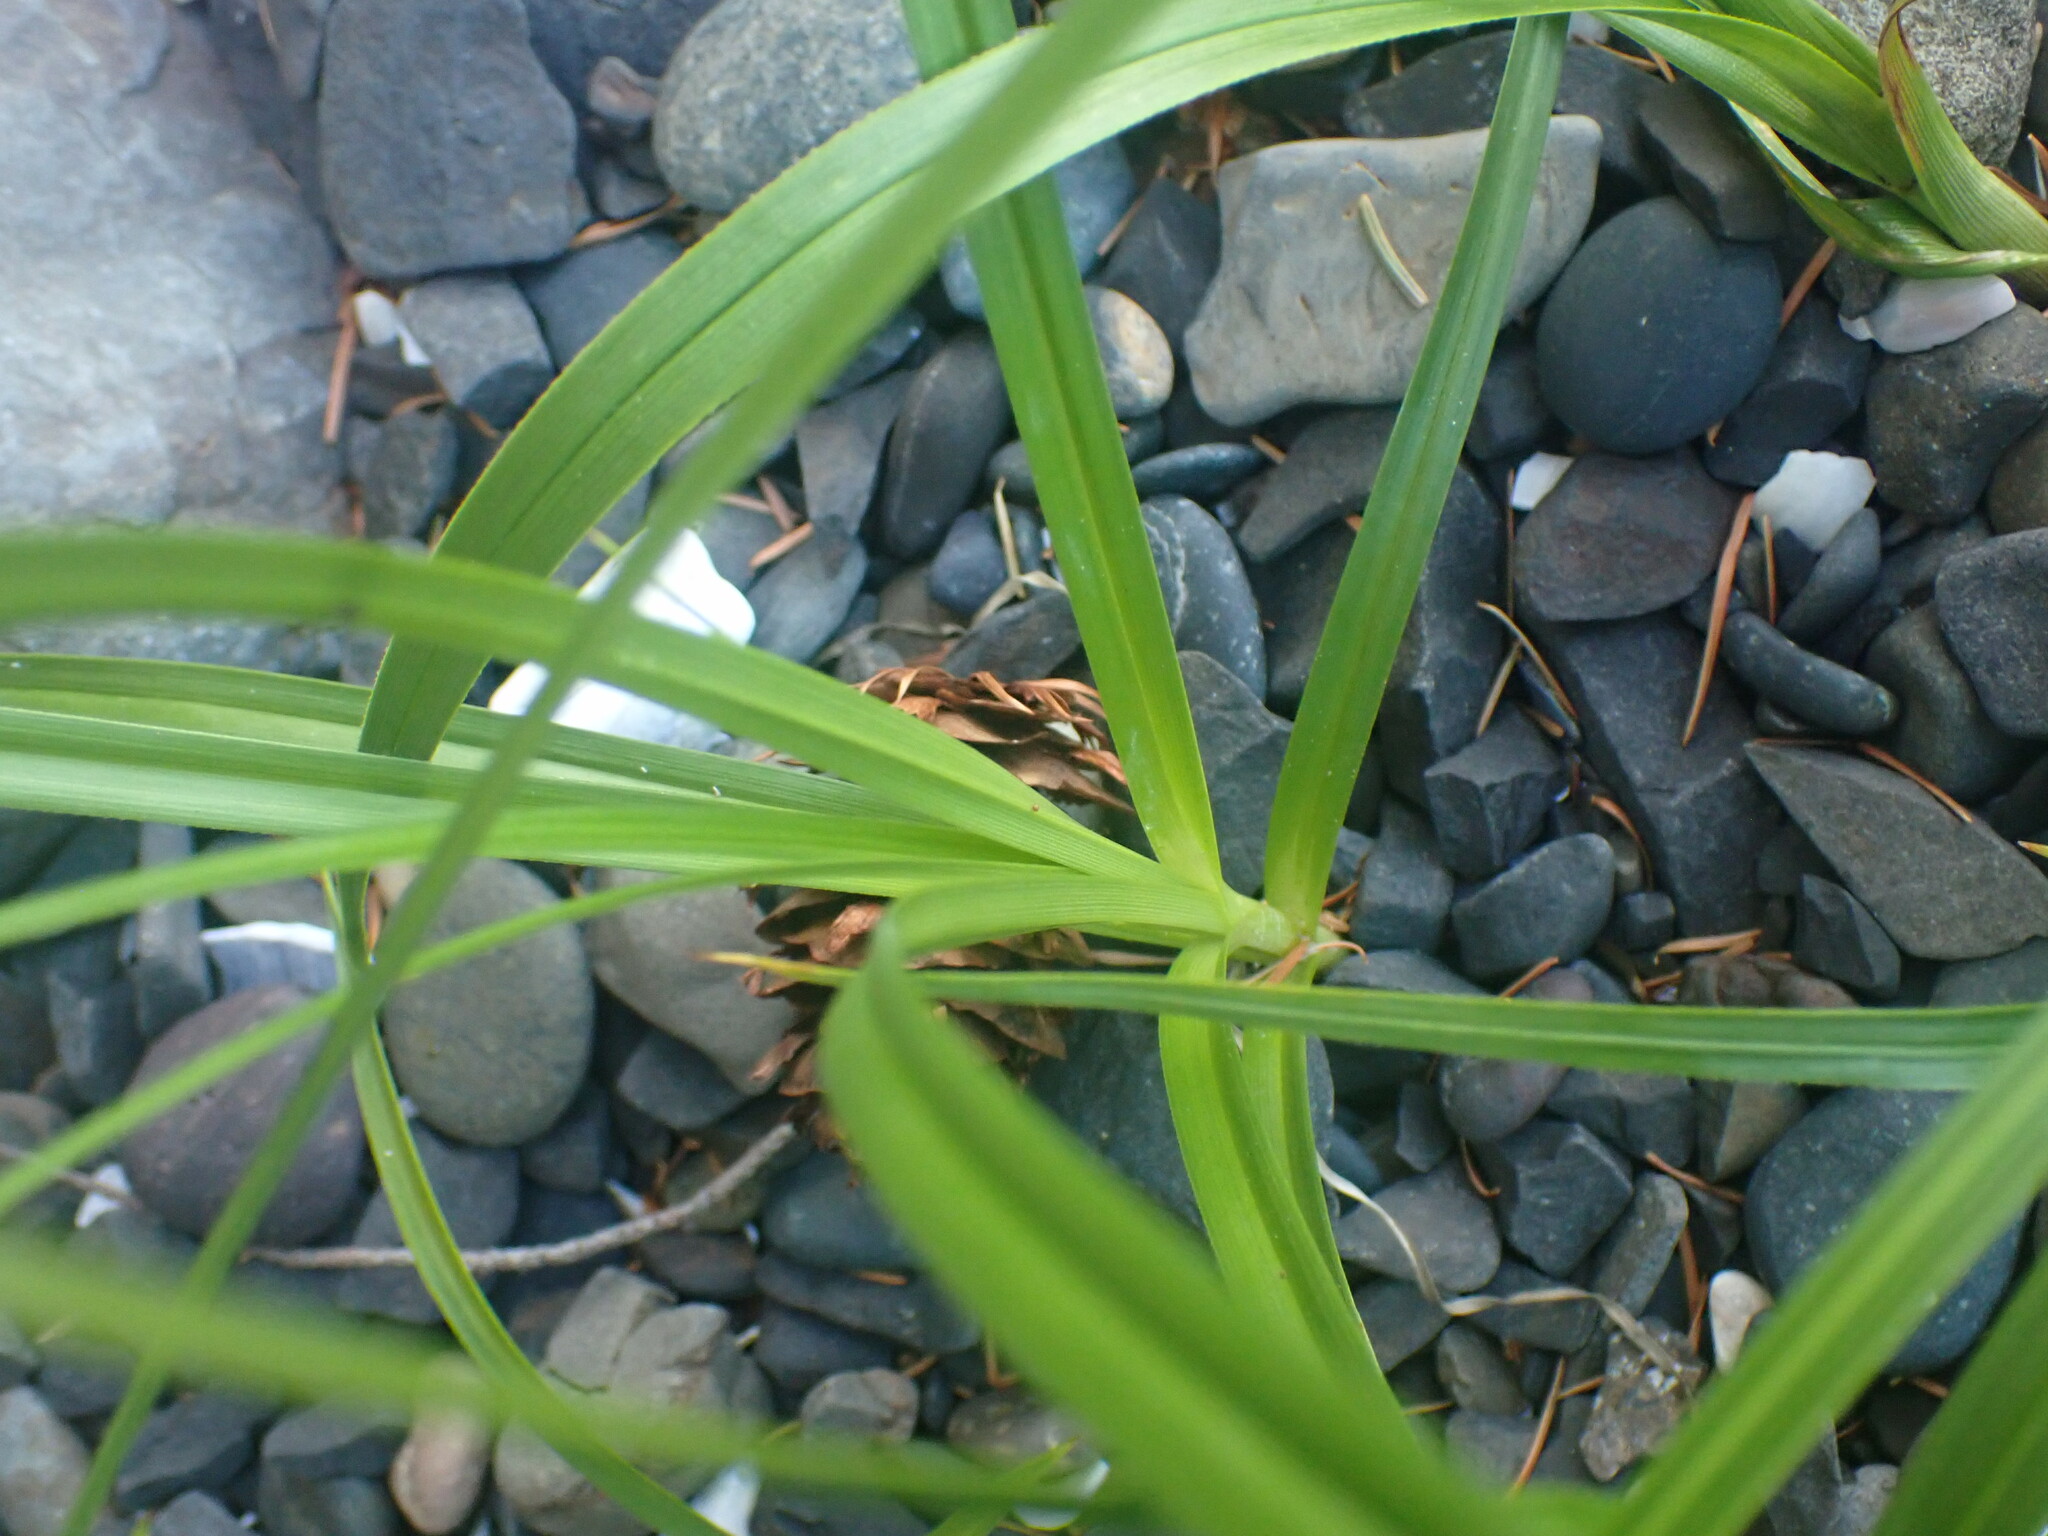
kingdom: Plantae
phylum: Tracheophyta
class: Liliopsida
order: Poales
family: Cyperaceae
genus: Carex
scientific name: Carex macrocephala
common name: Large-head sedge
